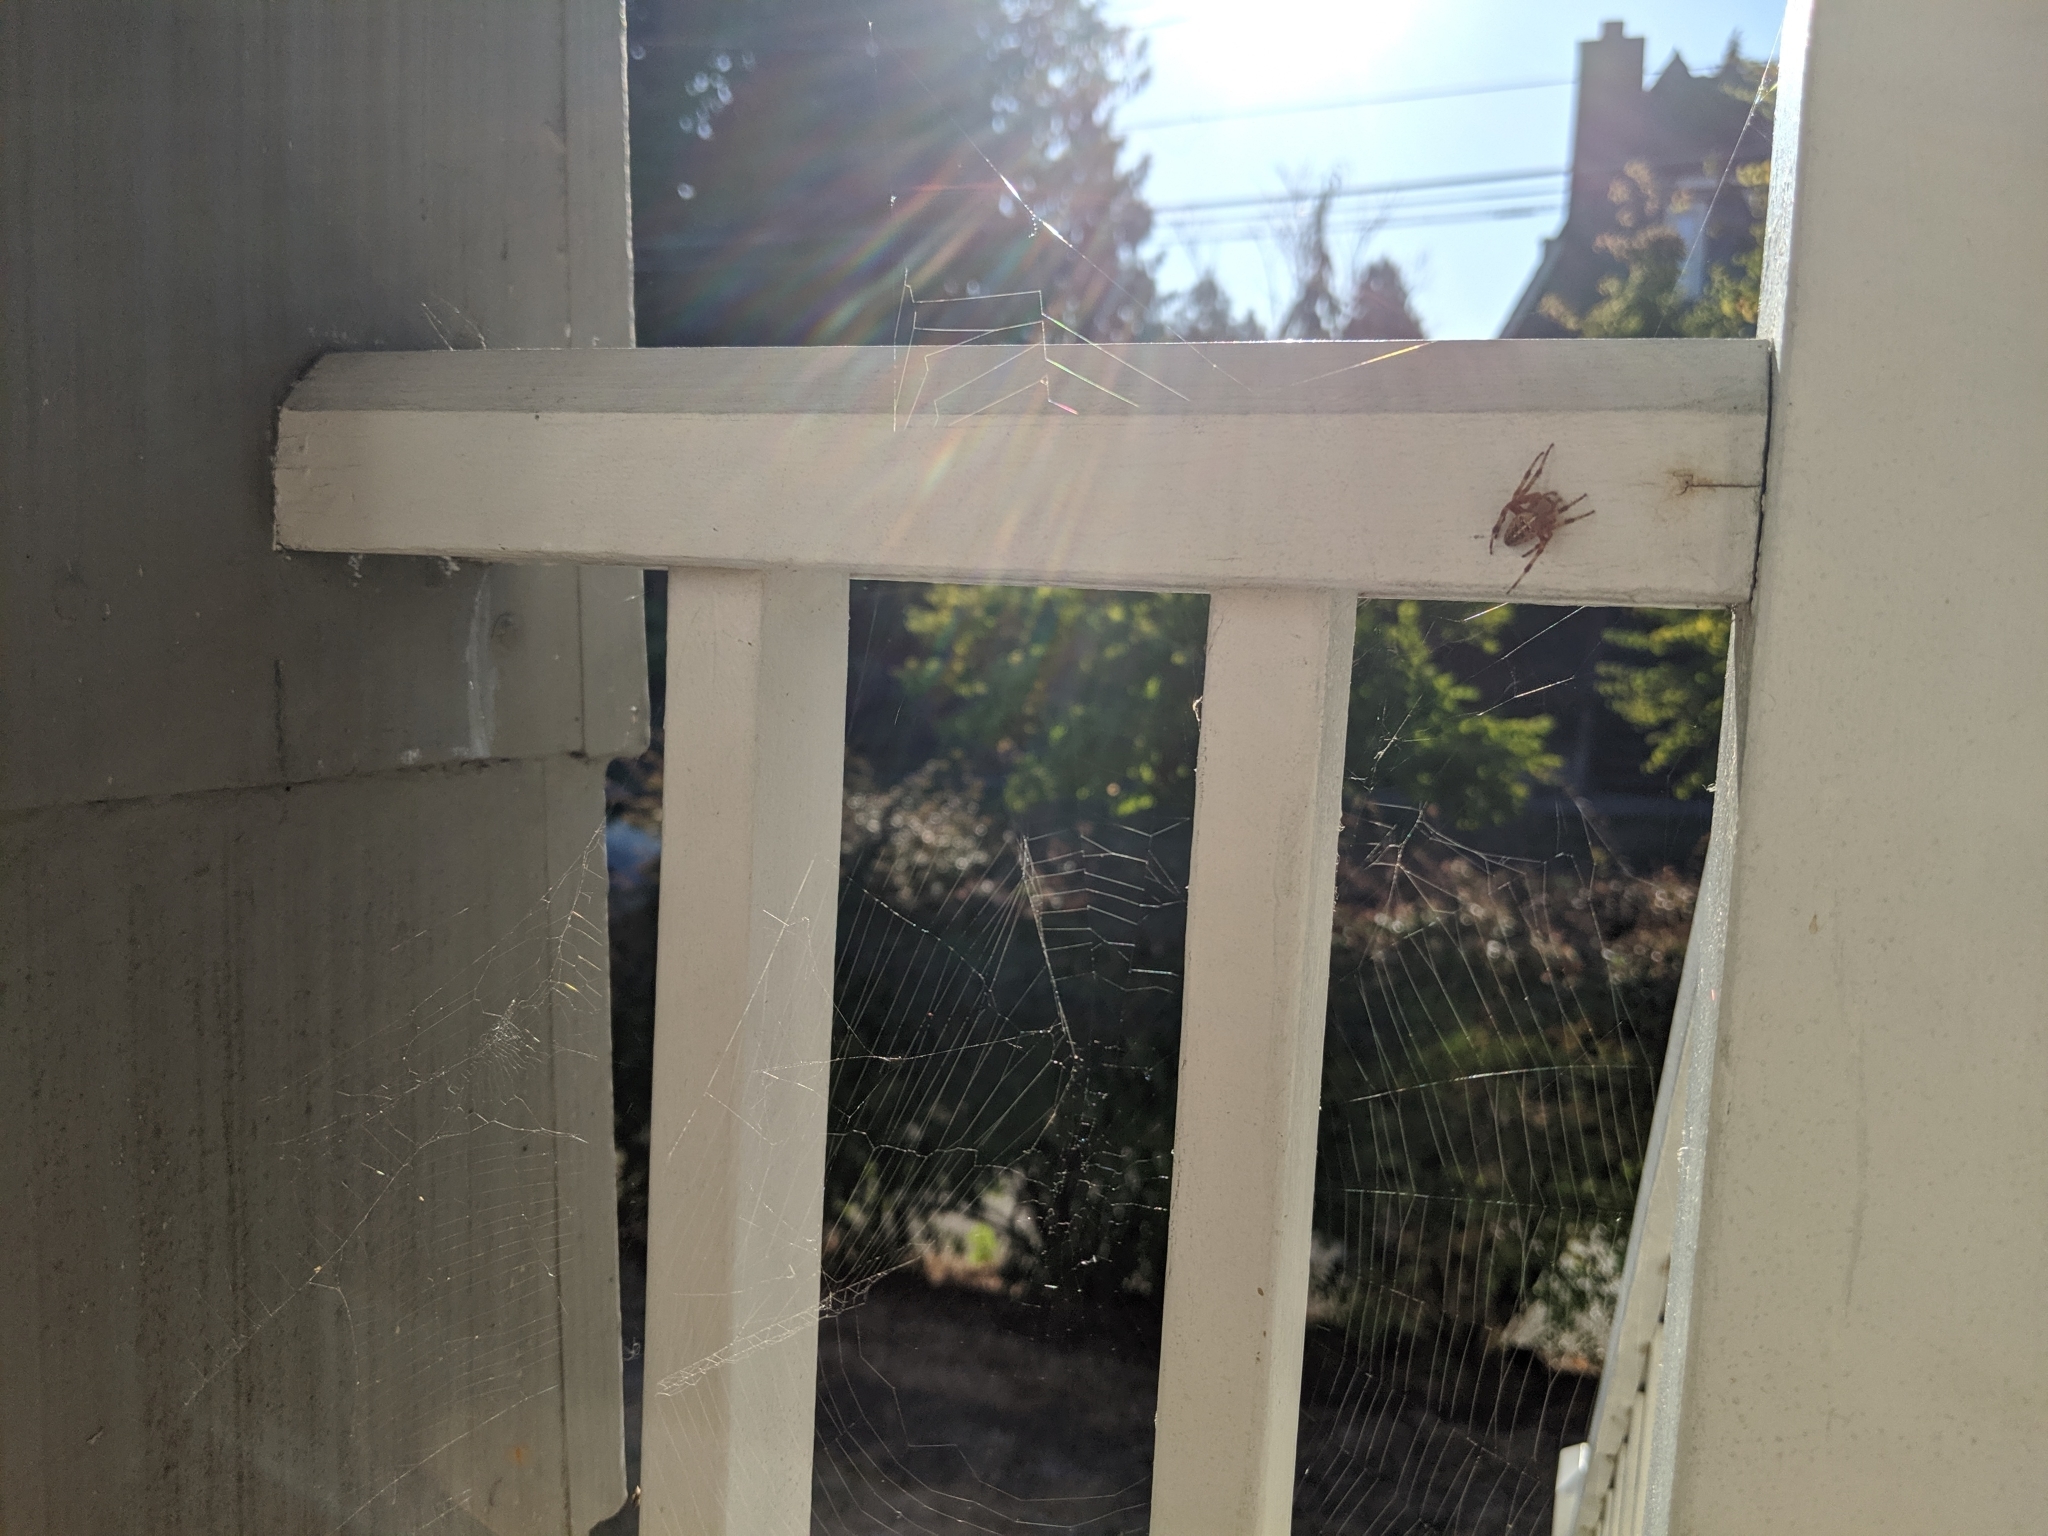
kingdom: Animalia
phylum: Arthropoda
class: Arachnida
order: Araneae
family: Araneidae
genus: Araneus
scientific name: Araneus diadematus
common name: Cross orbweaver
